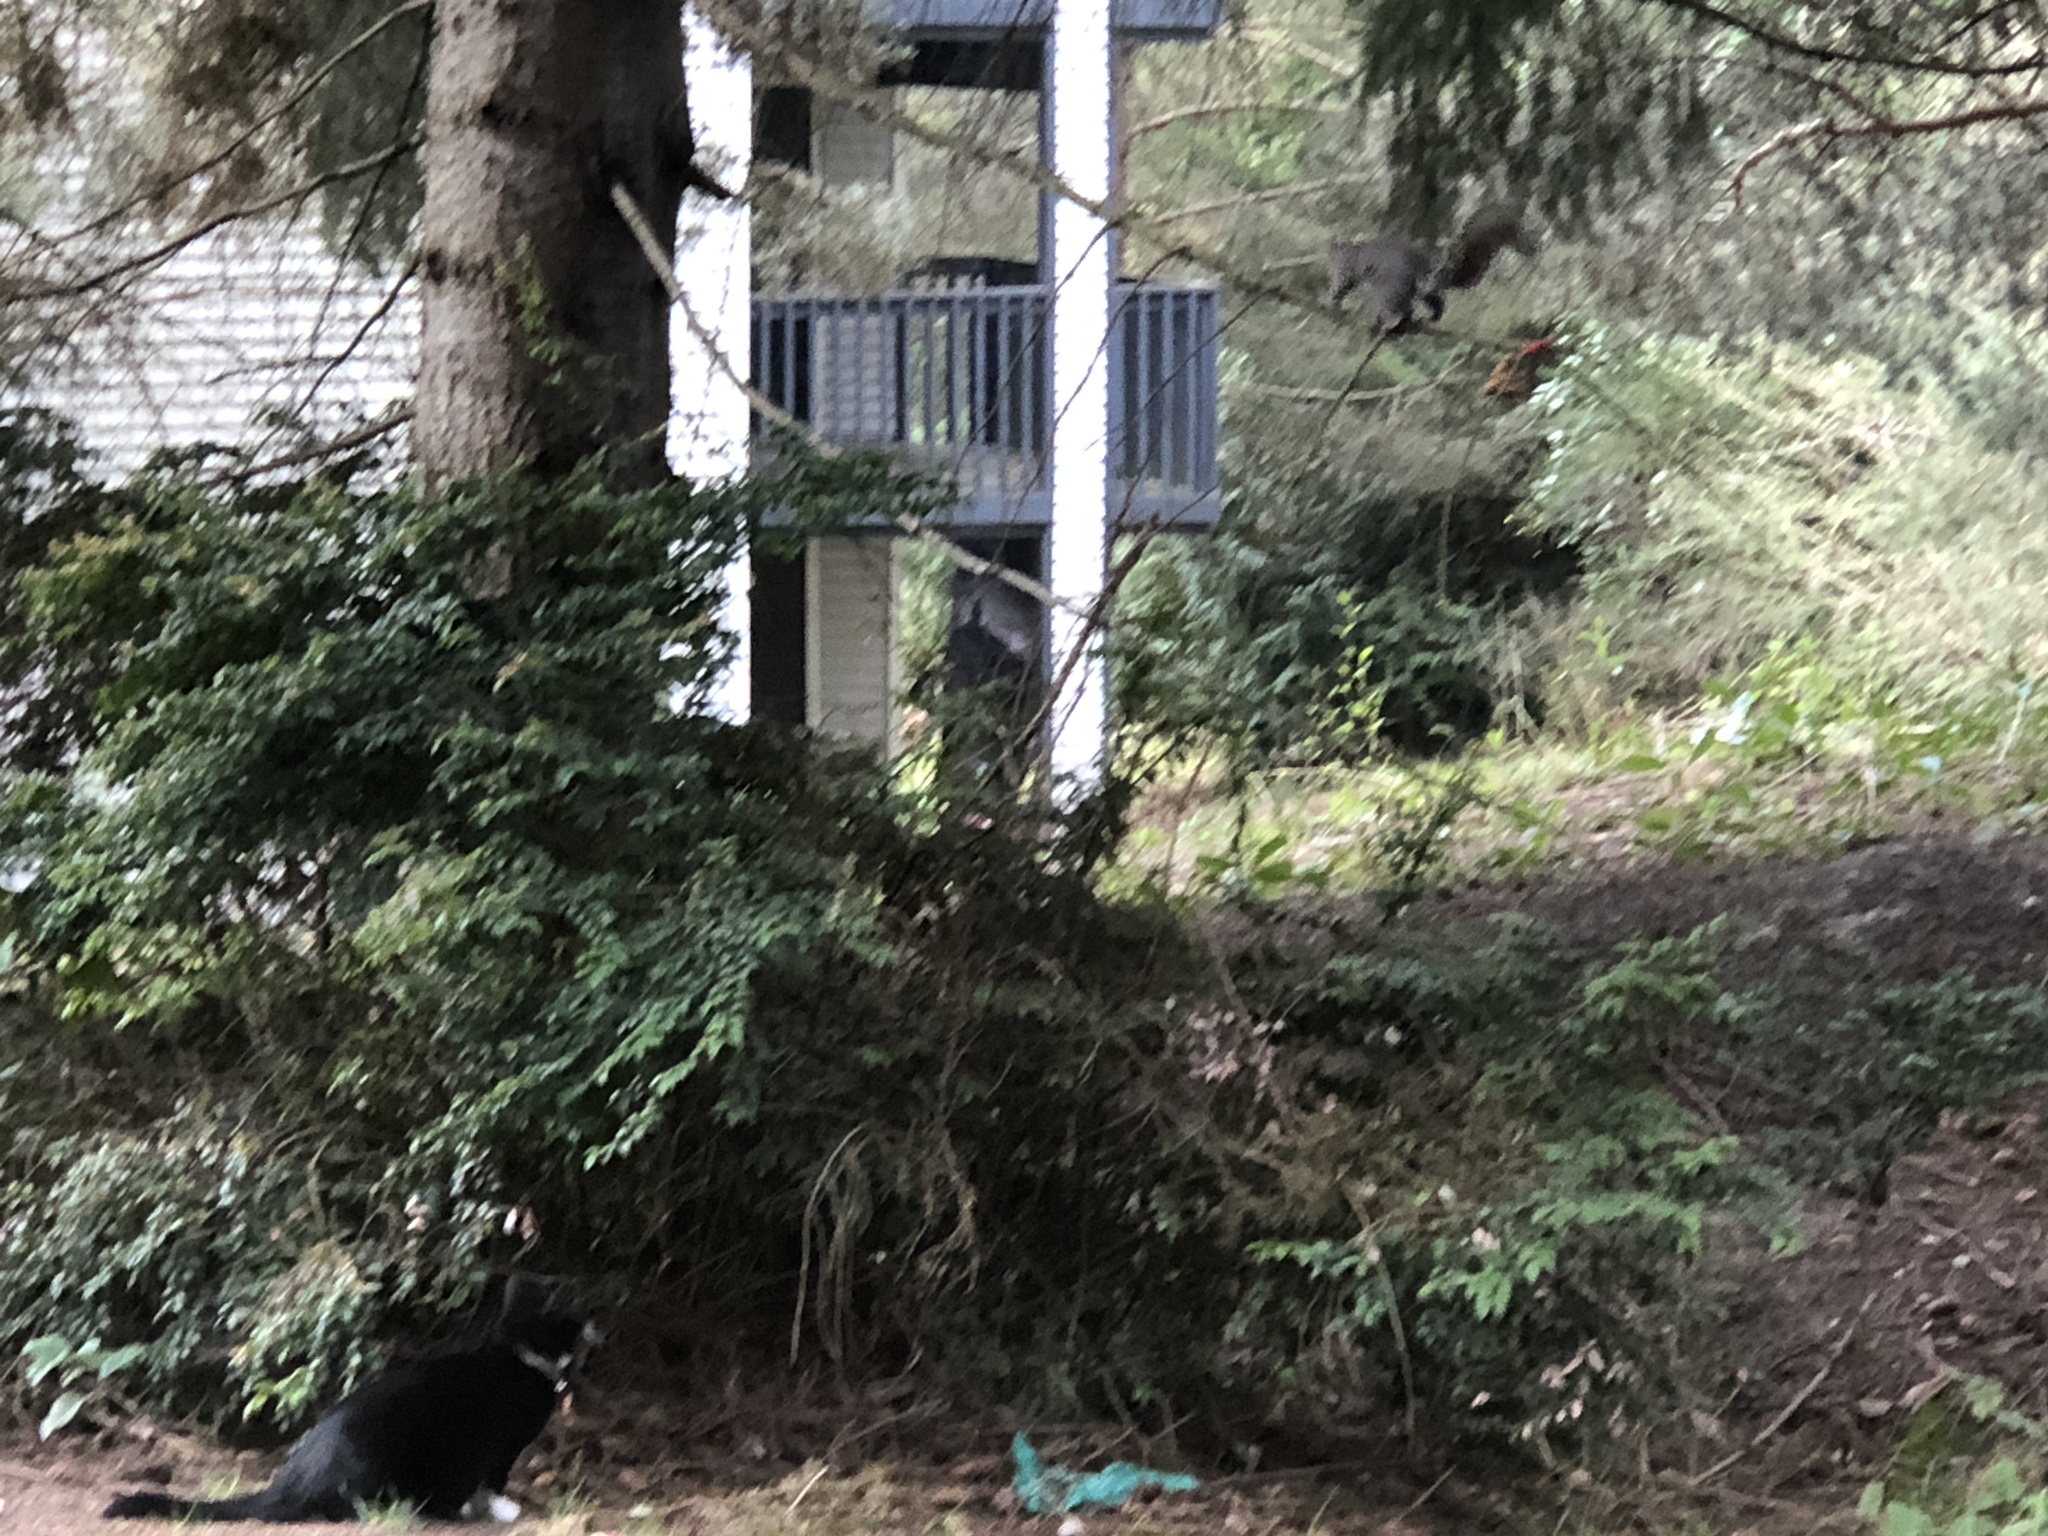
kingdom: Animalia
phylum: Chordata
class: Mammalia
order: Rodentia
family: Sciuridae
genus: Sciurus
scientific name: Sciurus carolinensis
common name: Eastern gray squirrel
